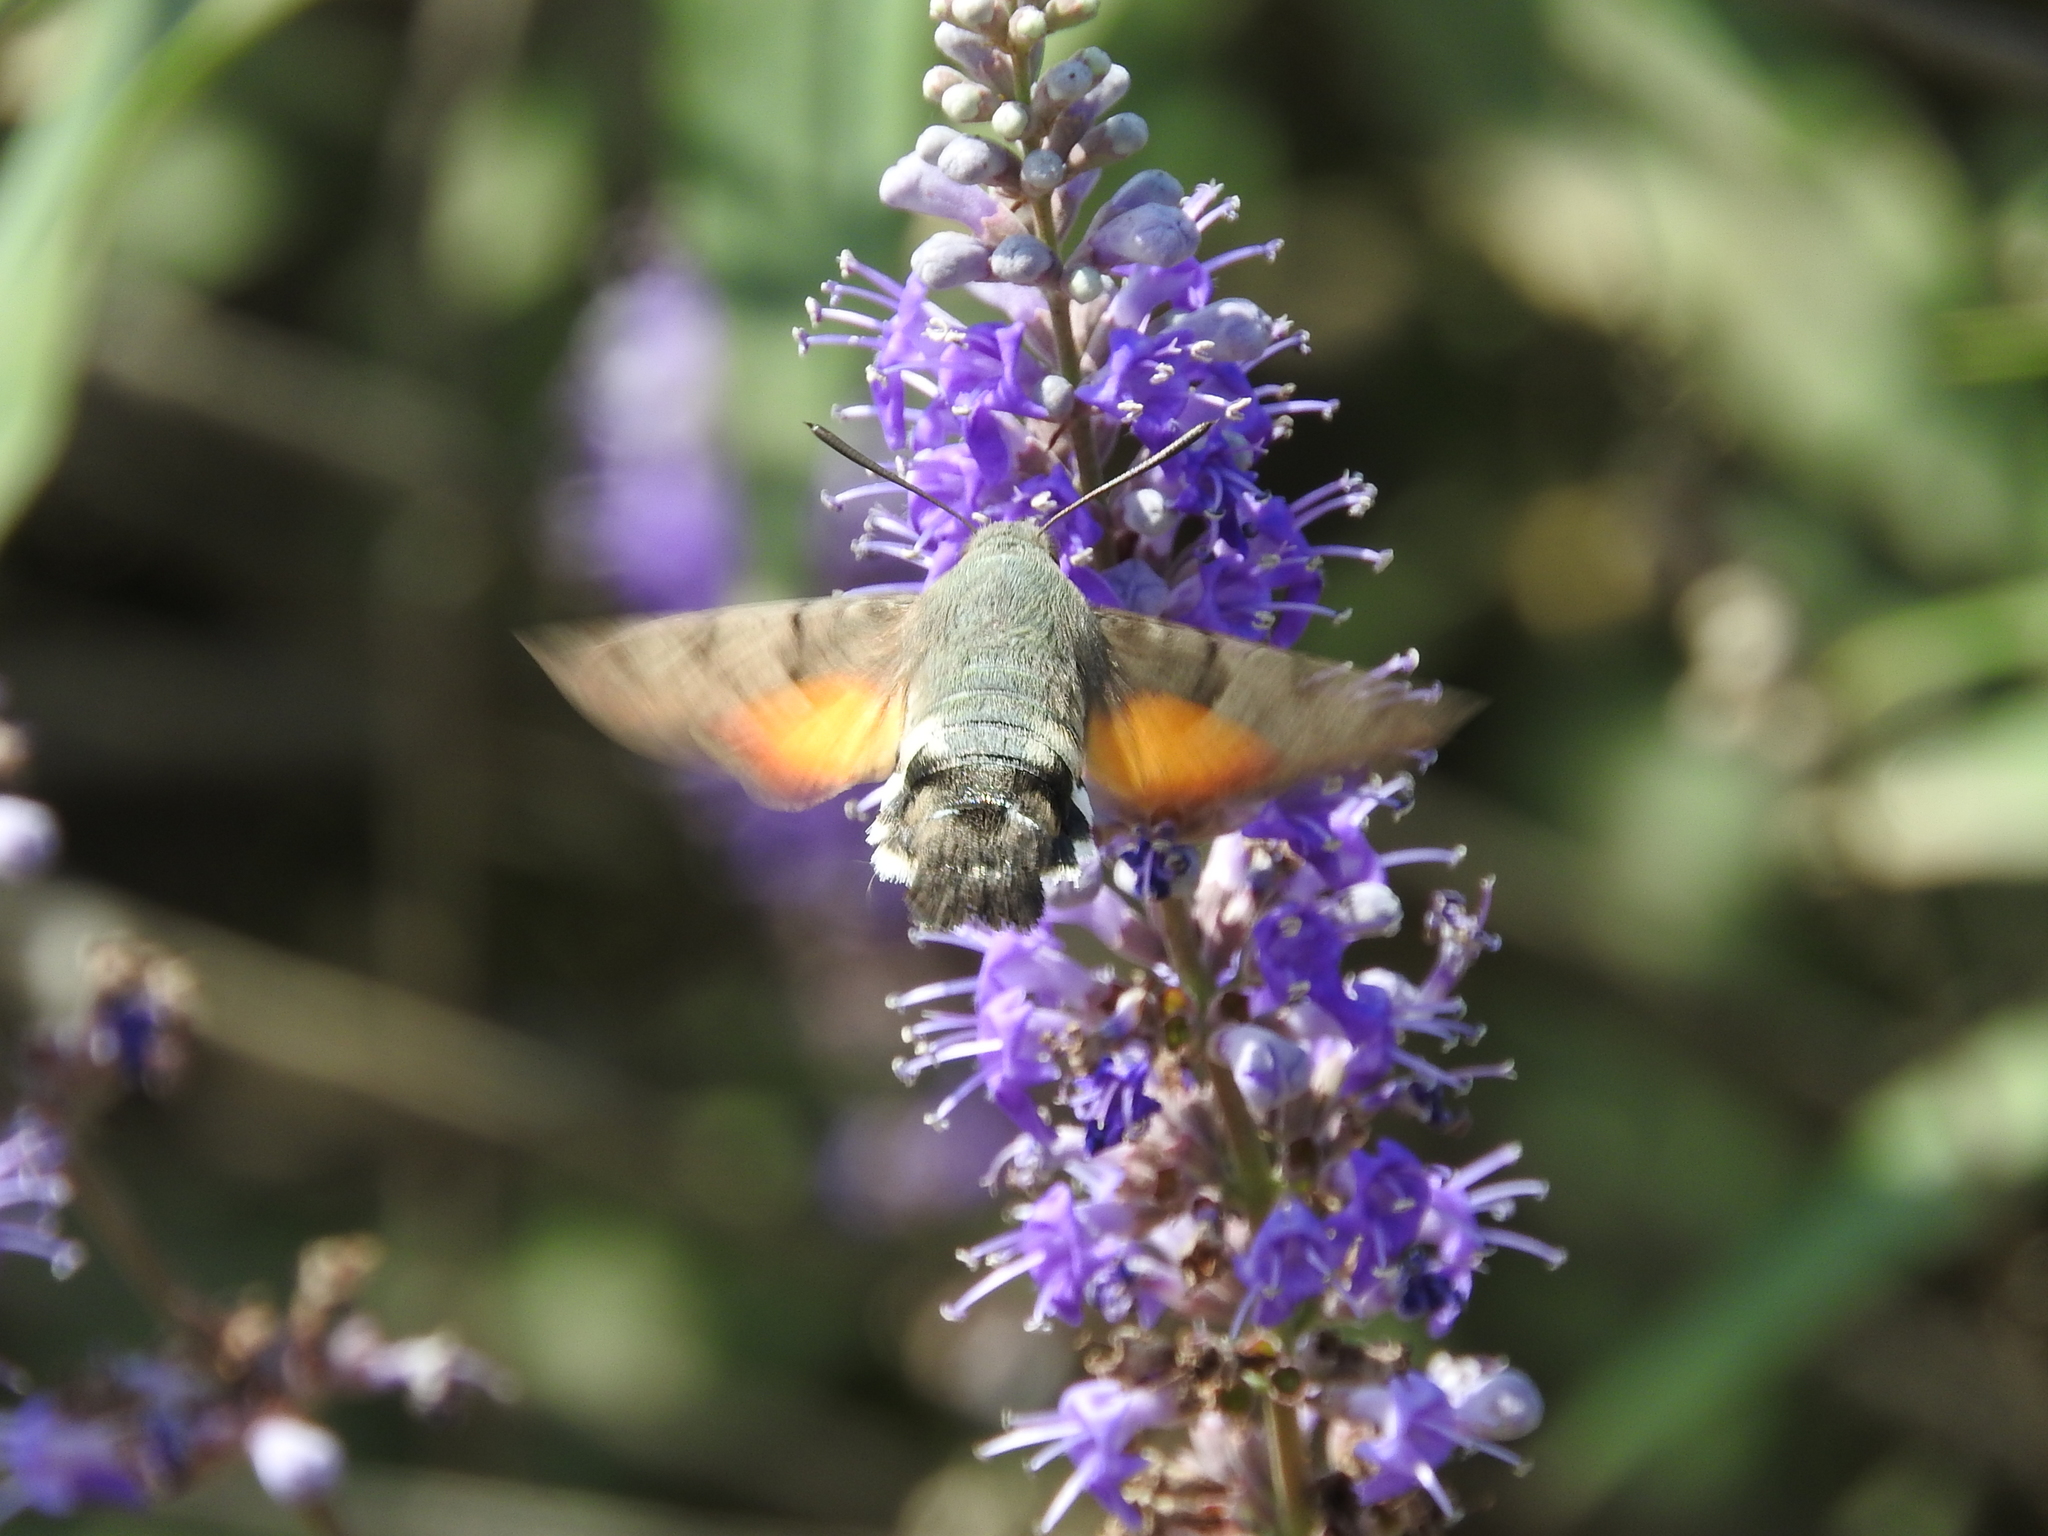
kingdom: Animalia
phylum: Arthropoda
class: Insecta
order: Lepidoptera
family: Sphingidae
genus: Macroglossum
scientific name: Macroglossum stellatarum
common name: Humming-bird hawk-moth
